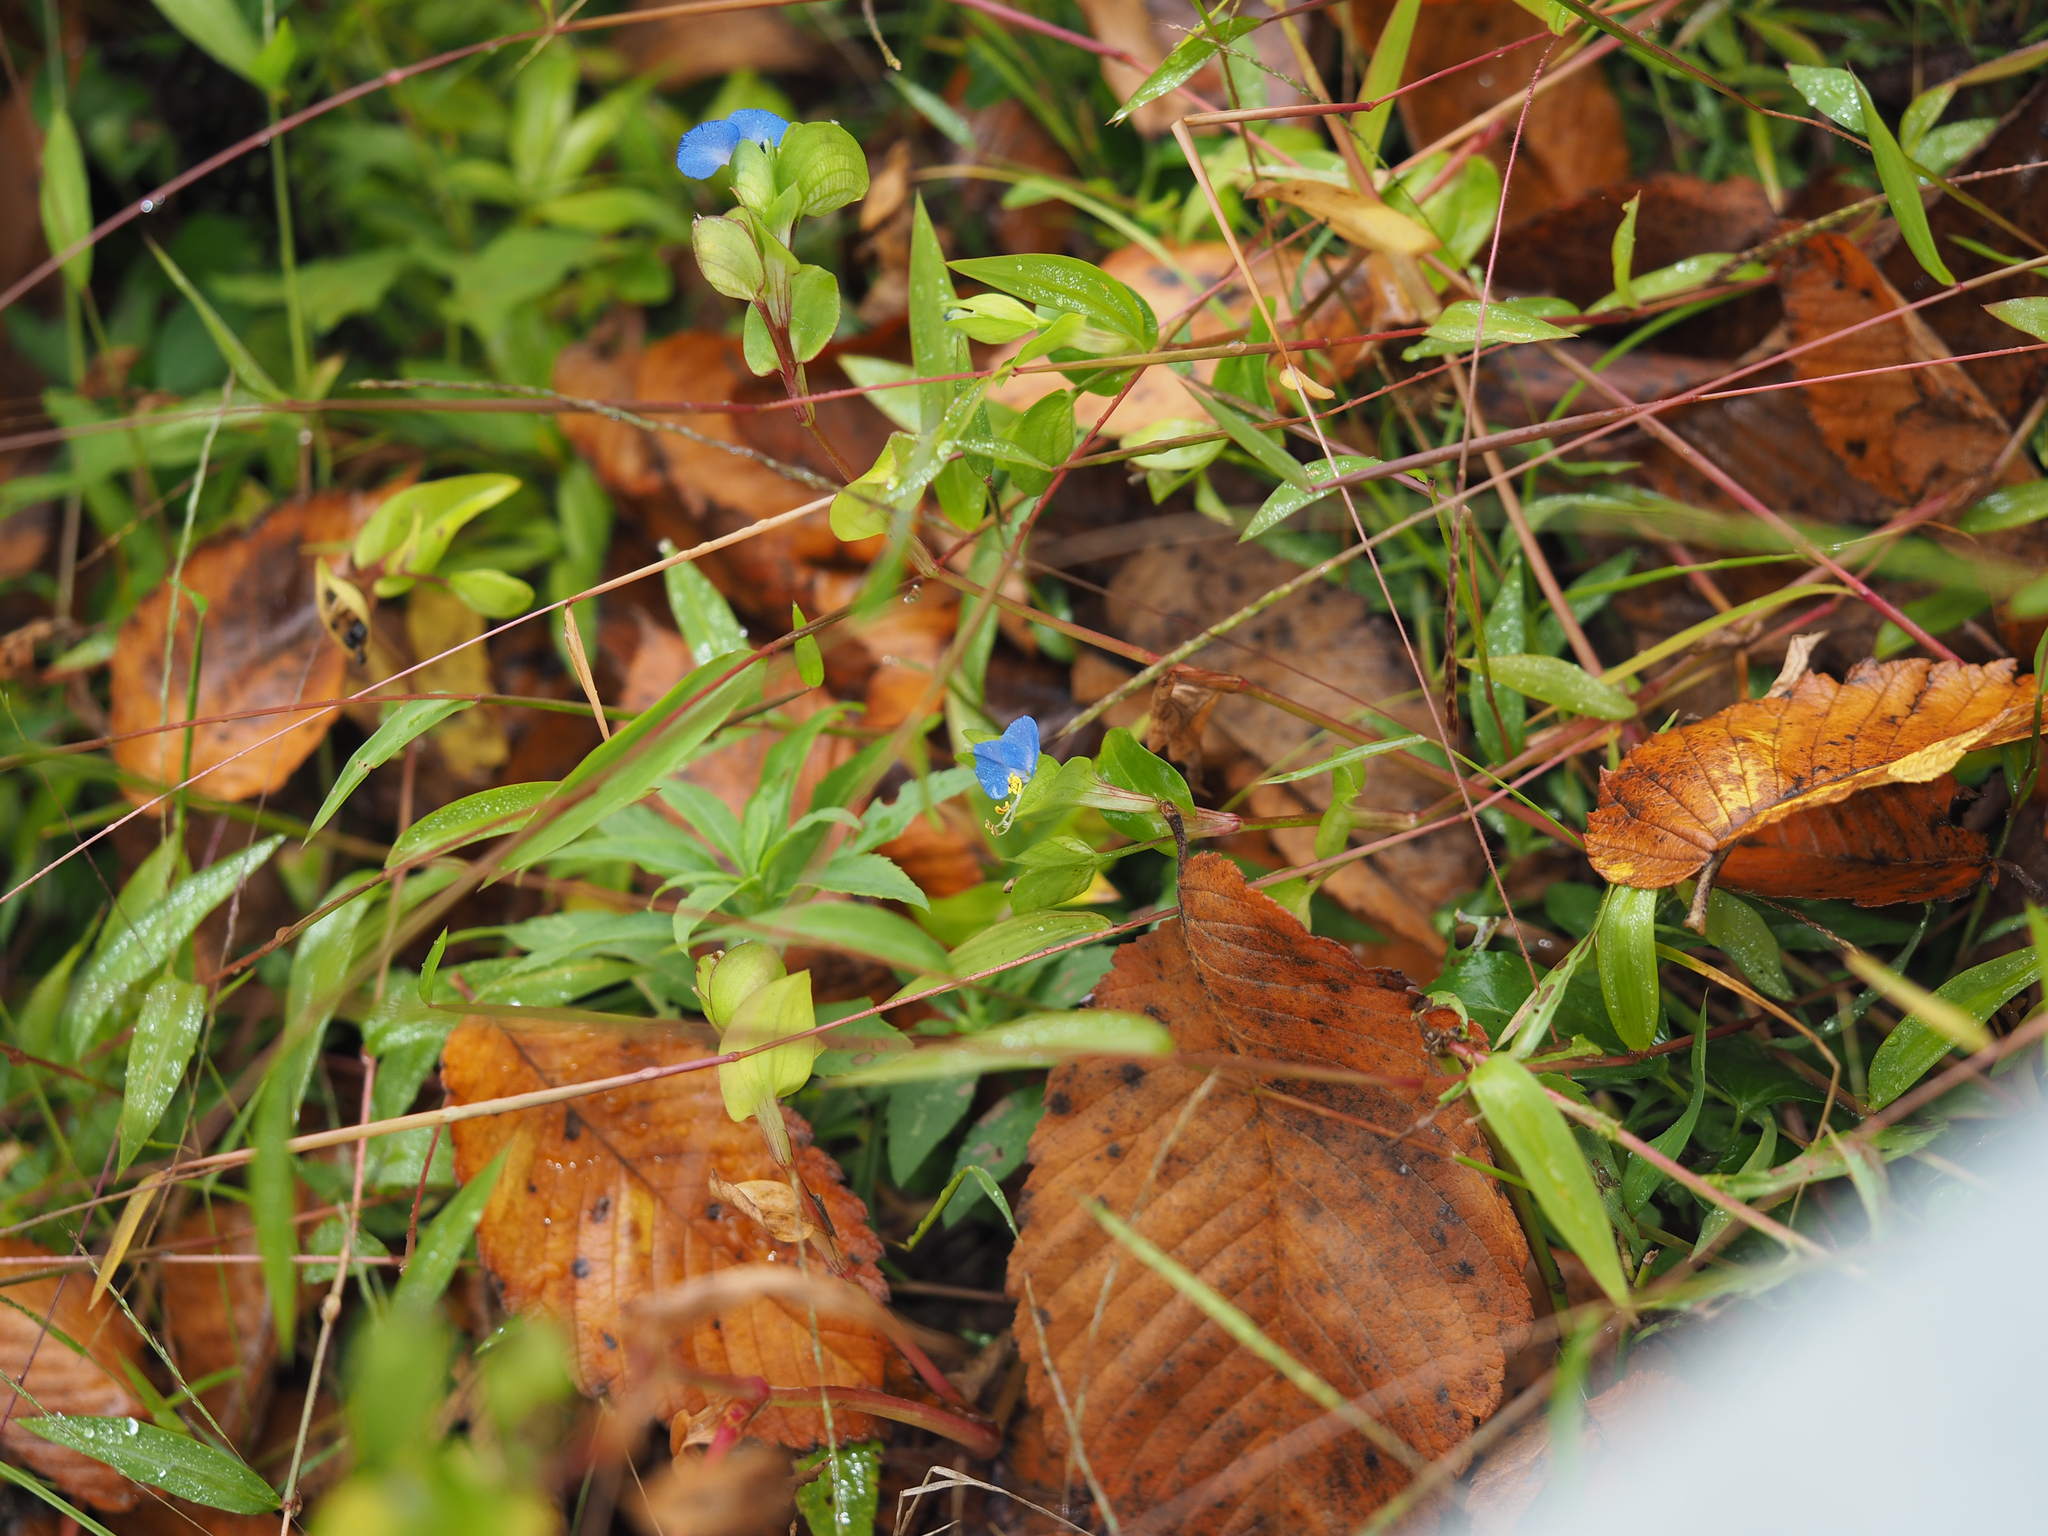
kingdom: Plantae
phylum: Tracheophyta
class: Liliopsida
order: Commelinales
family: Commelinaceae
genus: Commelina
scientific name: Commelina communis
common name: Asiatic dayflower
